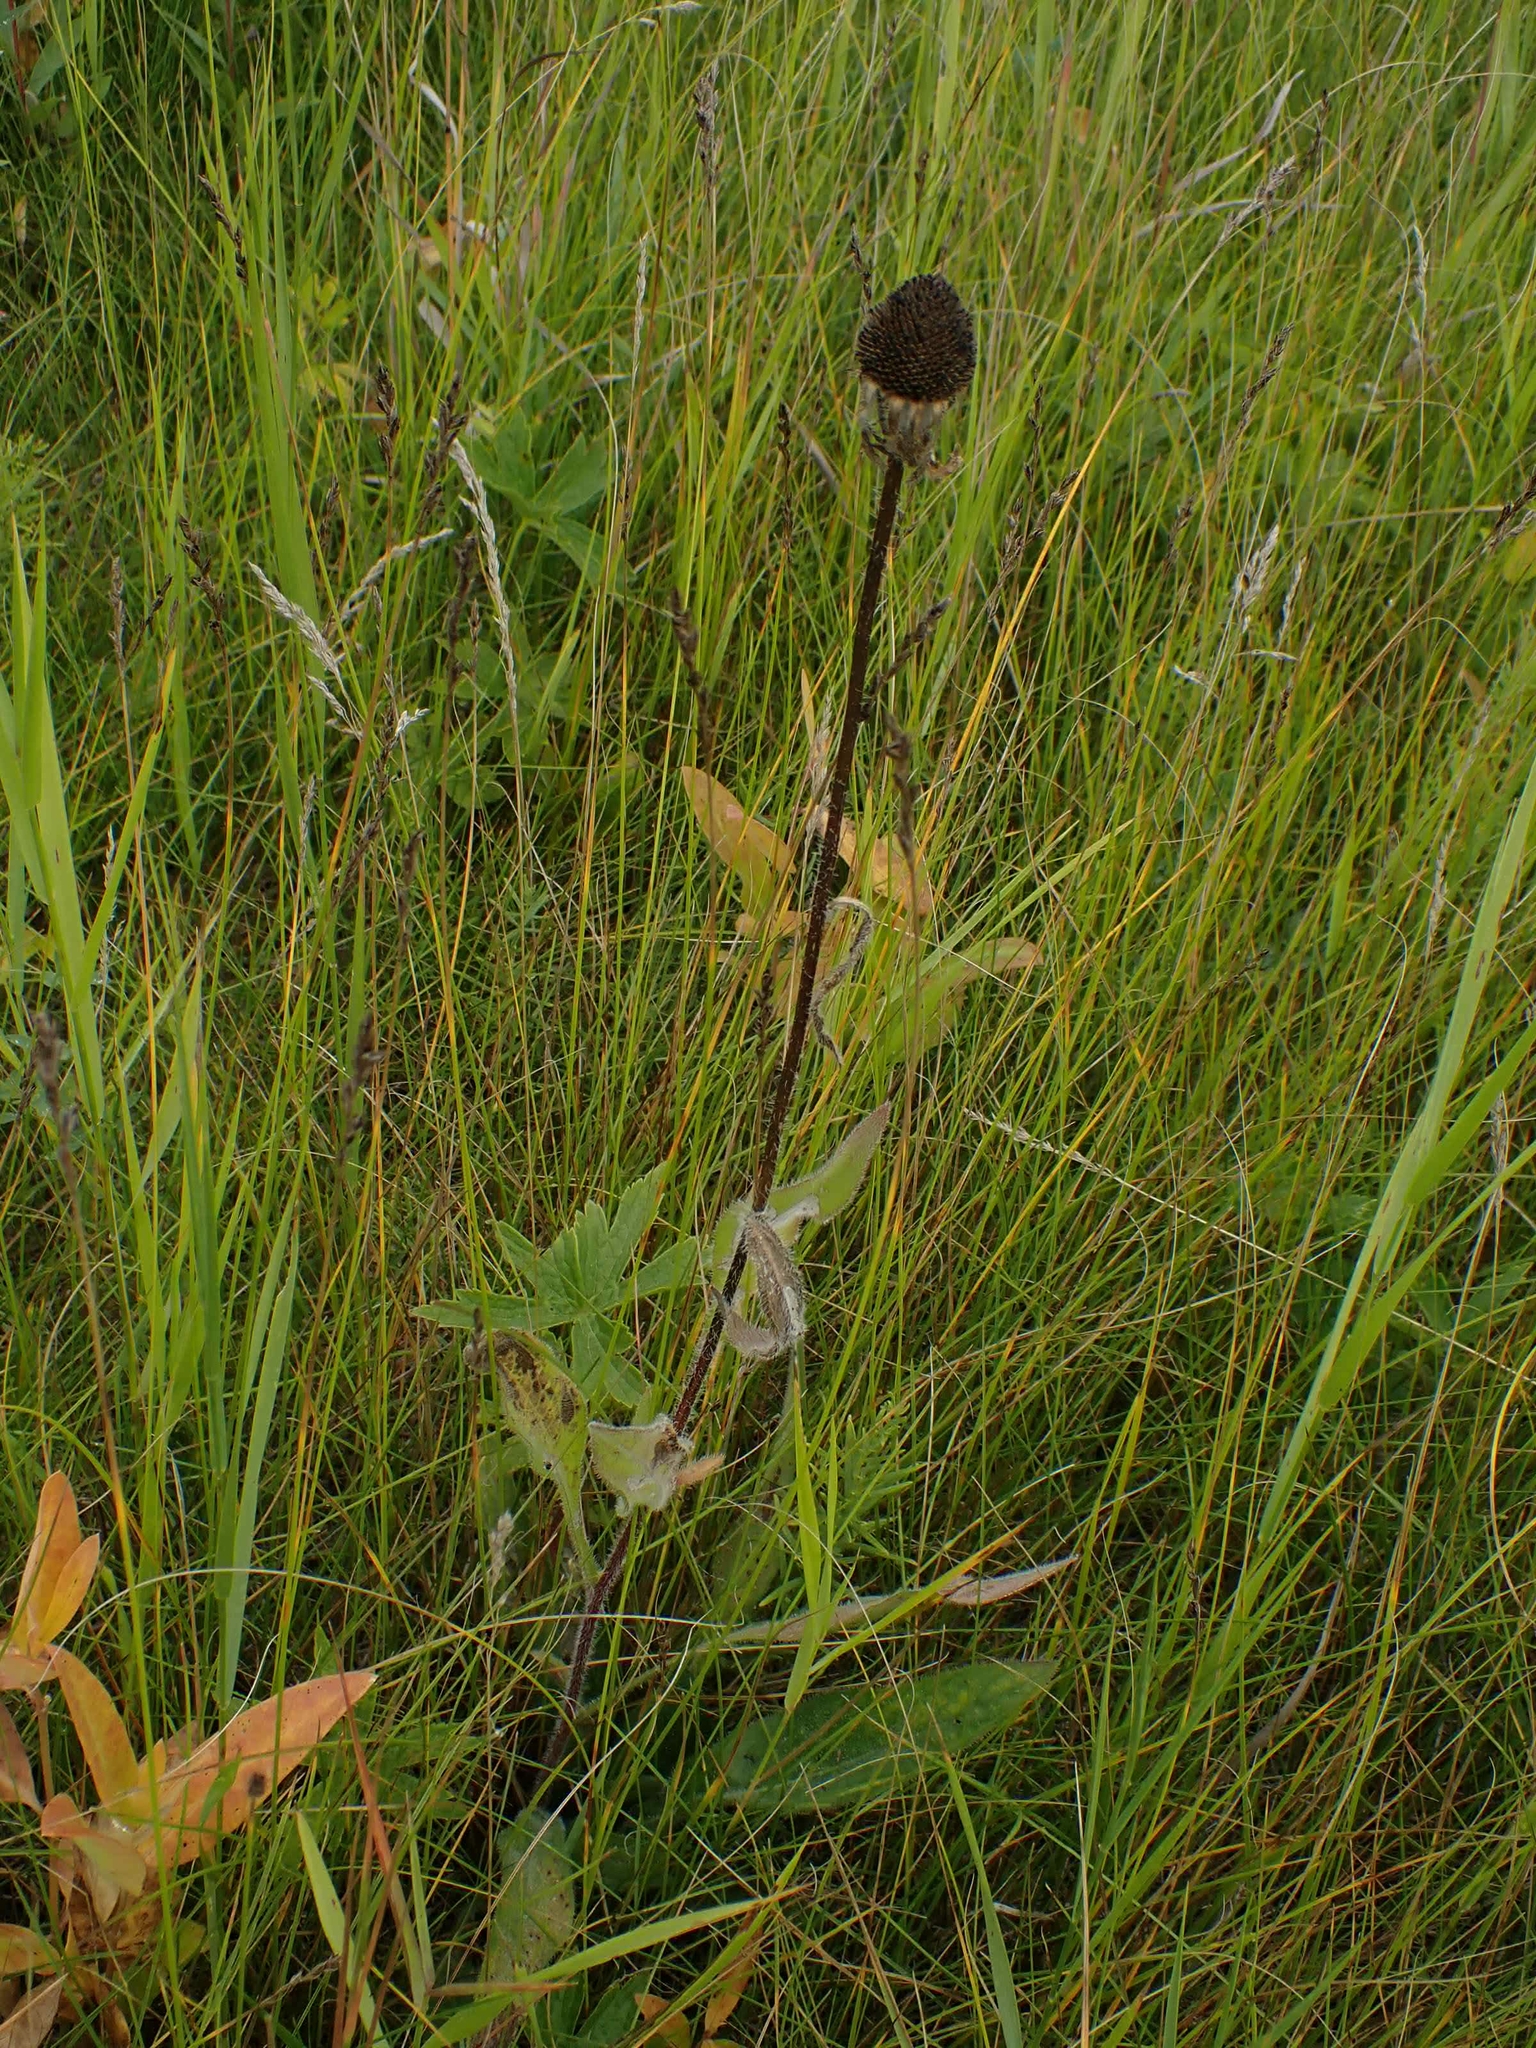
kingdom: Plantae
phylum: Tracheophyta
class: Magnoliopsida
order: Asterales
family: Asteraceae
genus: Rudbeckia
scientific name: Rudbeckia hirta
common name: Black-eyed-susan
